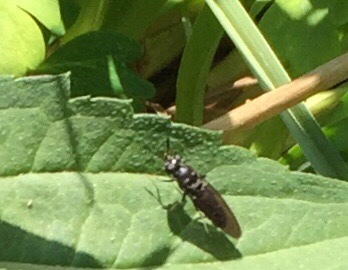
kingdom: Animalia
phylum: Arthropoda
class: Insecta
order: Diptera
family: Stratiomyidae
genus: Hermetia
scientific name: Hermetia illucens
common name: Black soldier fly
